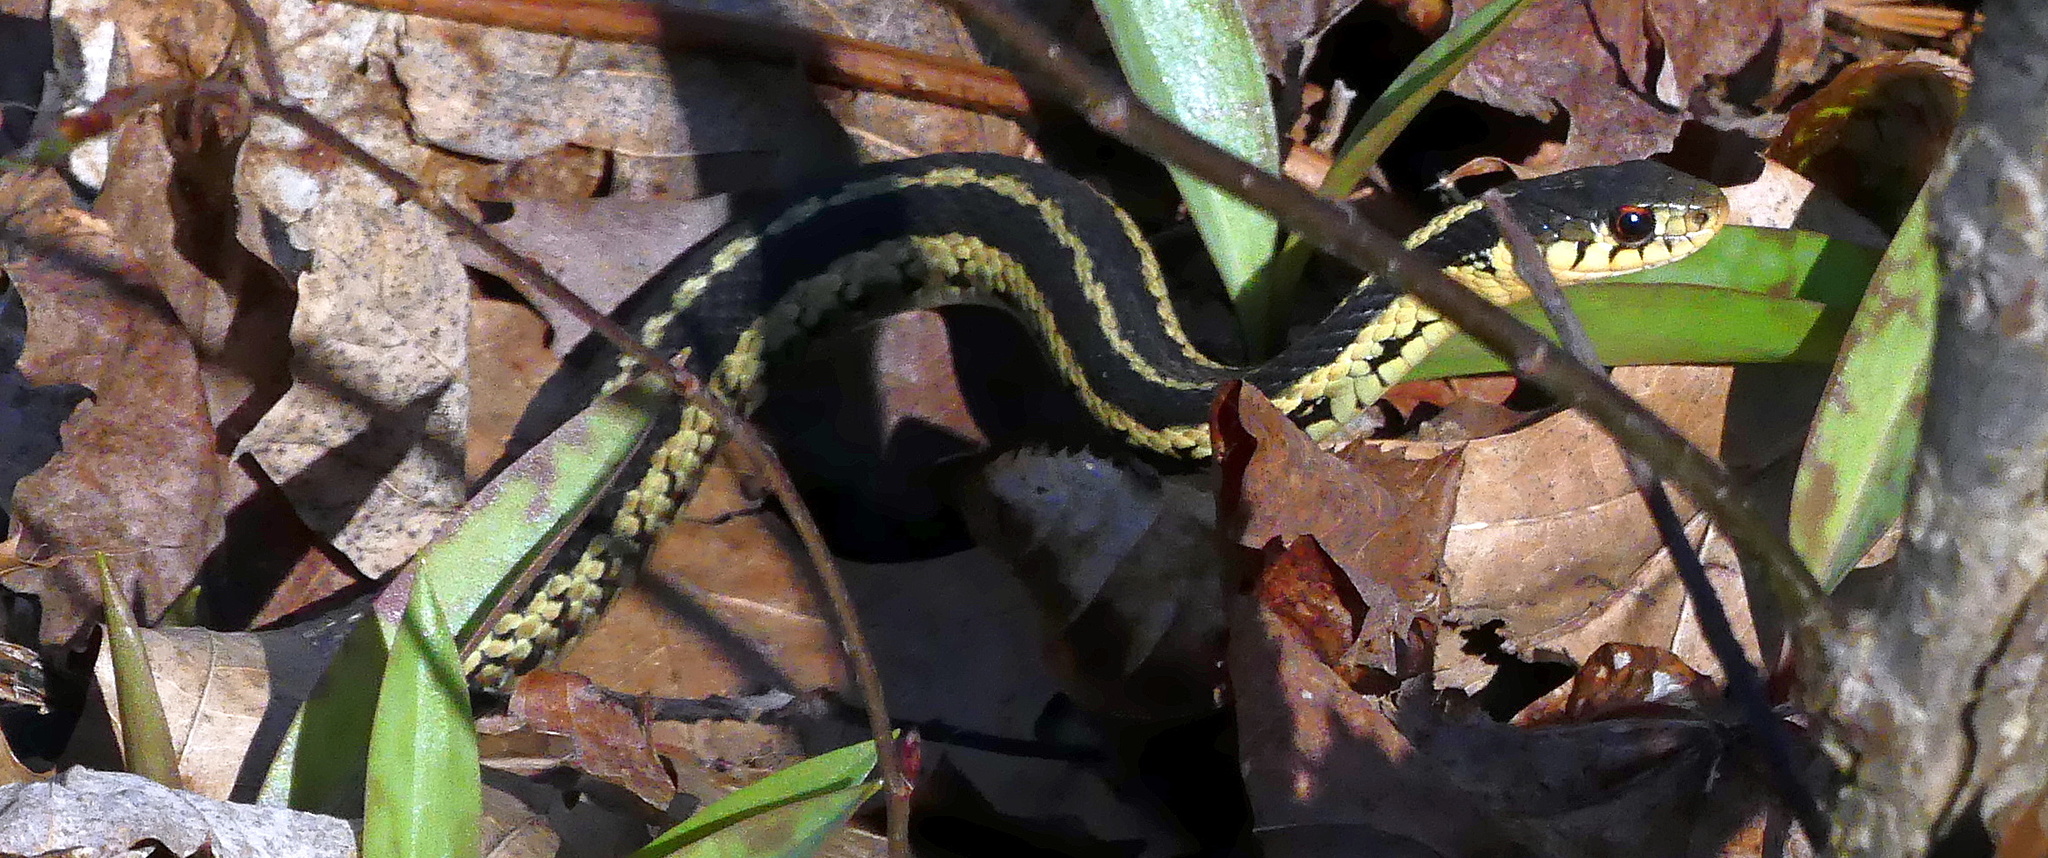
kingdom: Animalia
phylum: Chordata
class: Squamata
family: Colubridae
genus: Thamnophis
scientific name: Thamnophis sirtalis
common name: Common garter snake
